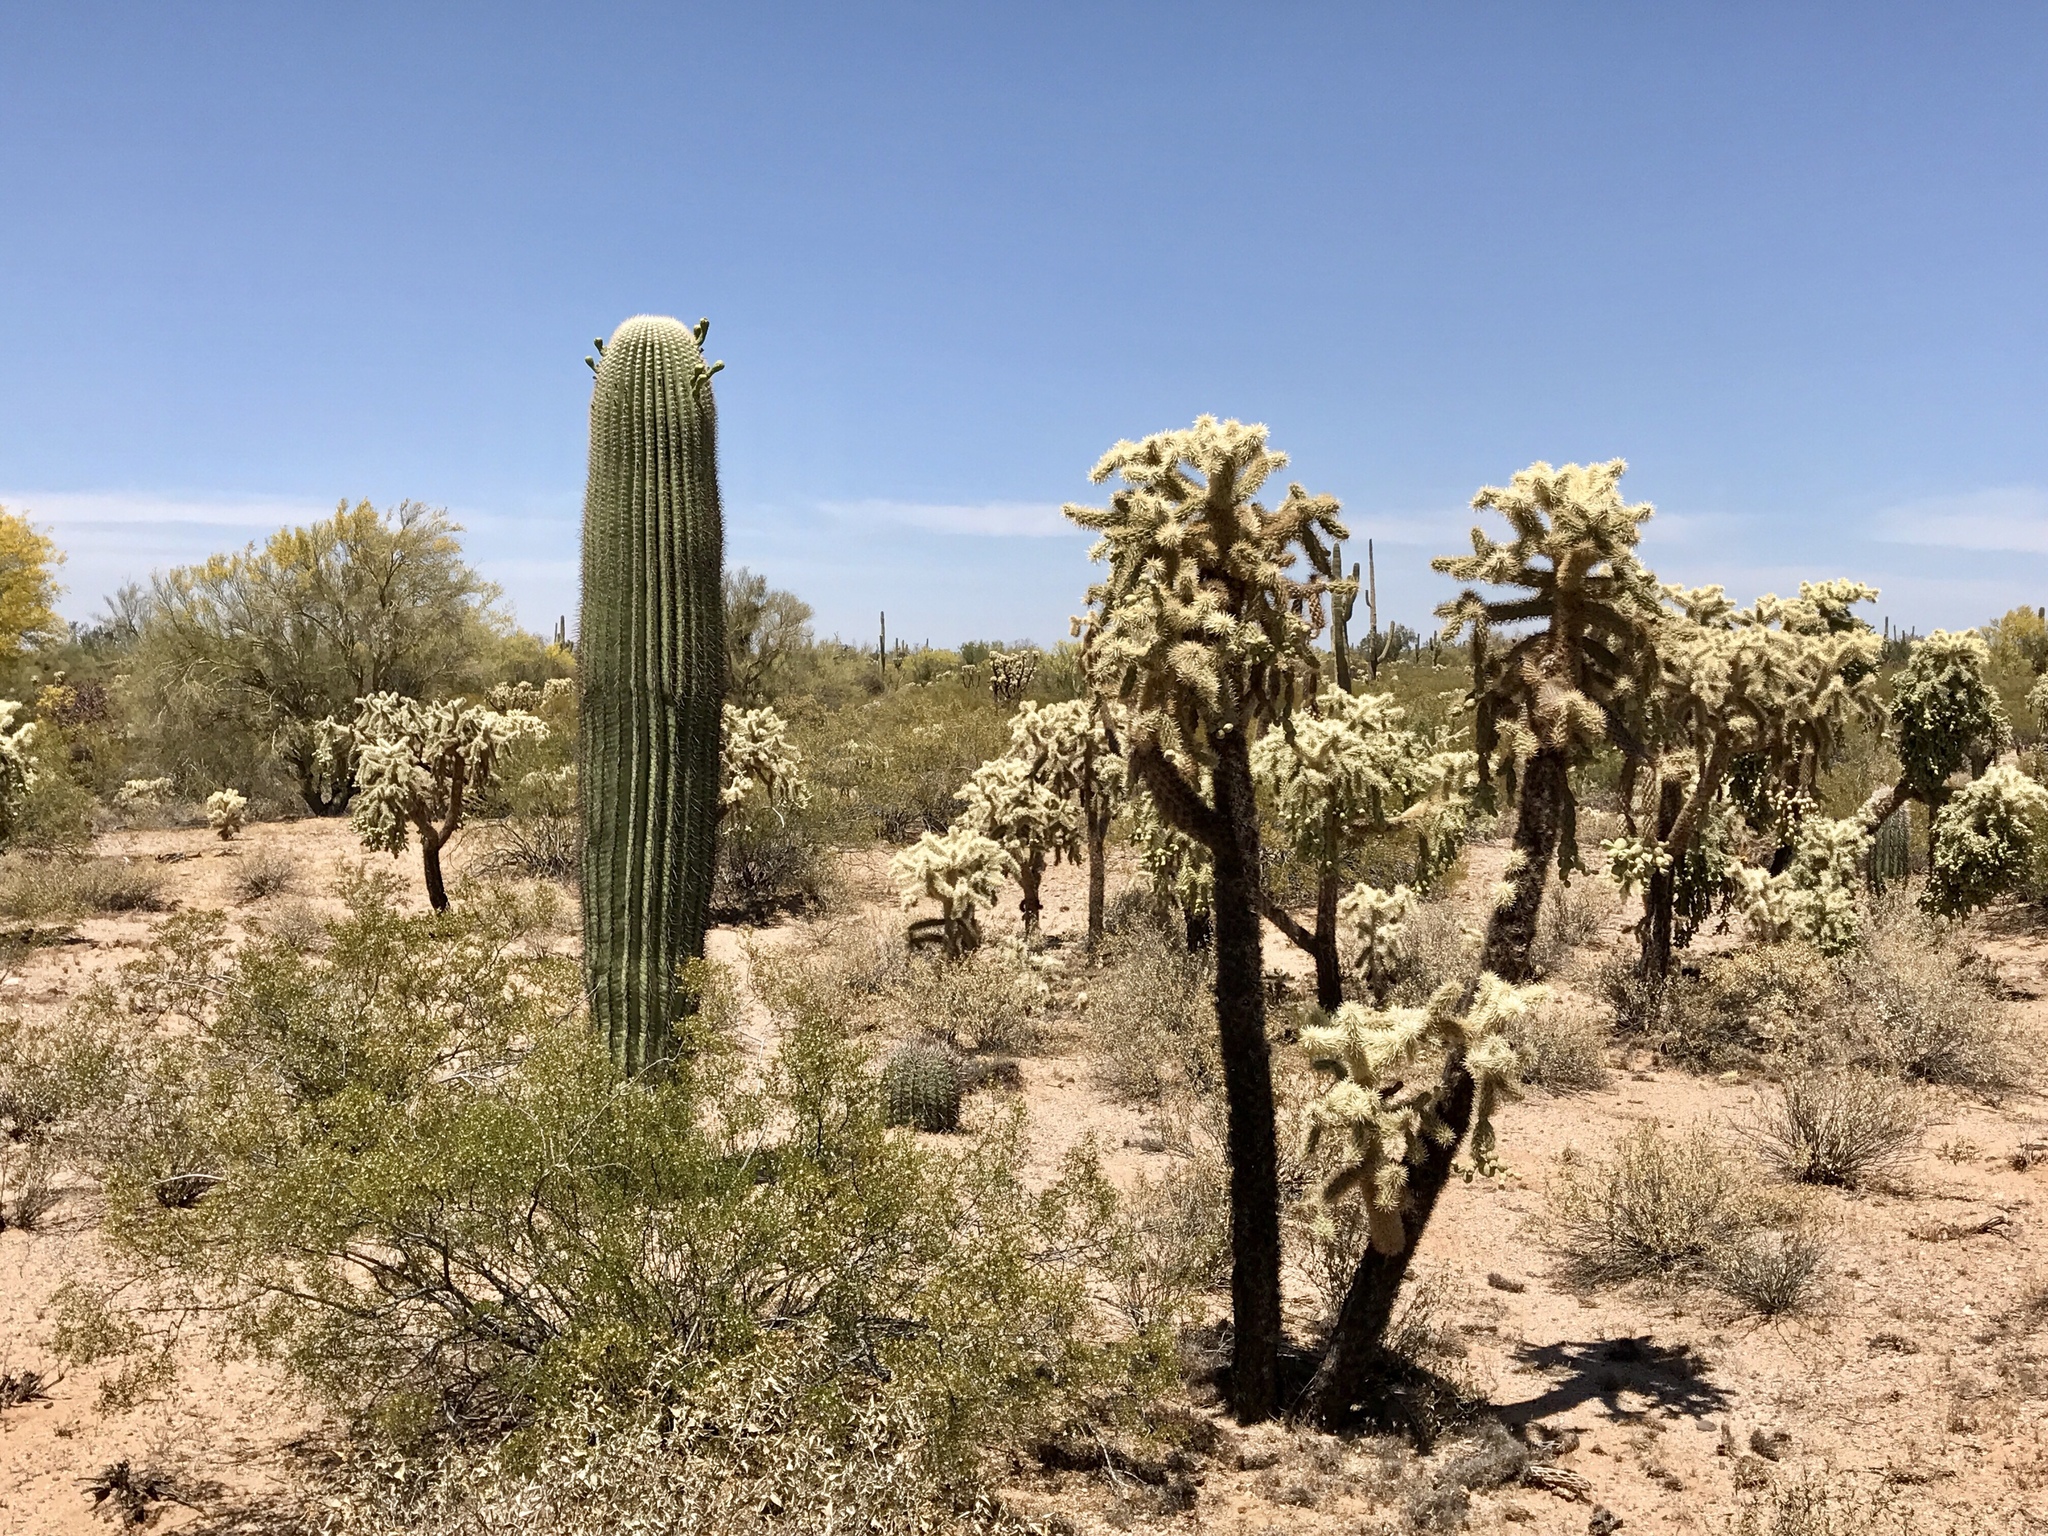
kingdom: Plantae
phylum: Tracheophyta
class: Magnoliopsida
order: Caryophyllales
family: Cactaceae
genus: Cylindropuntia
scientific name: Cylindropuntia fulgida
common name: Jumping cholla
